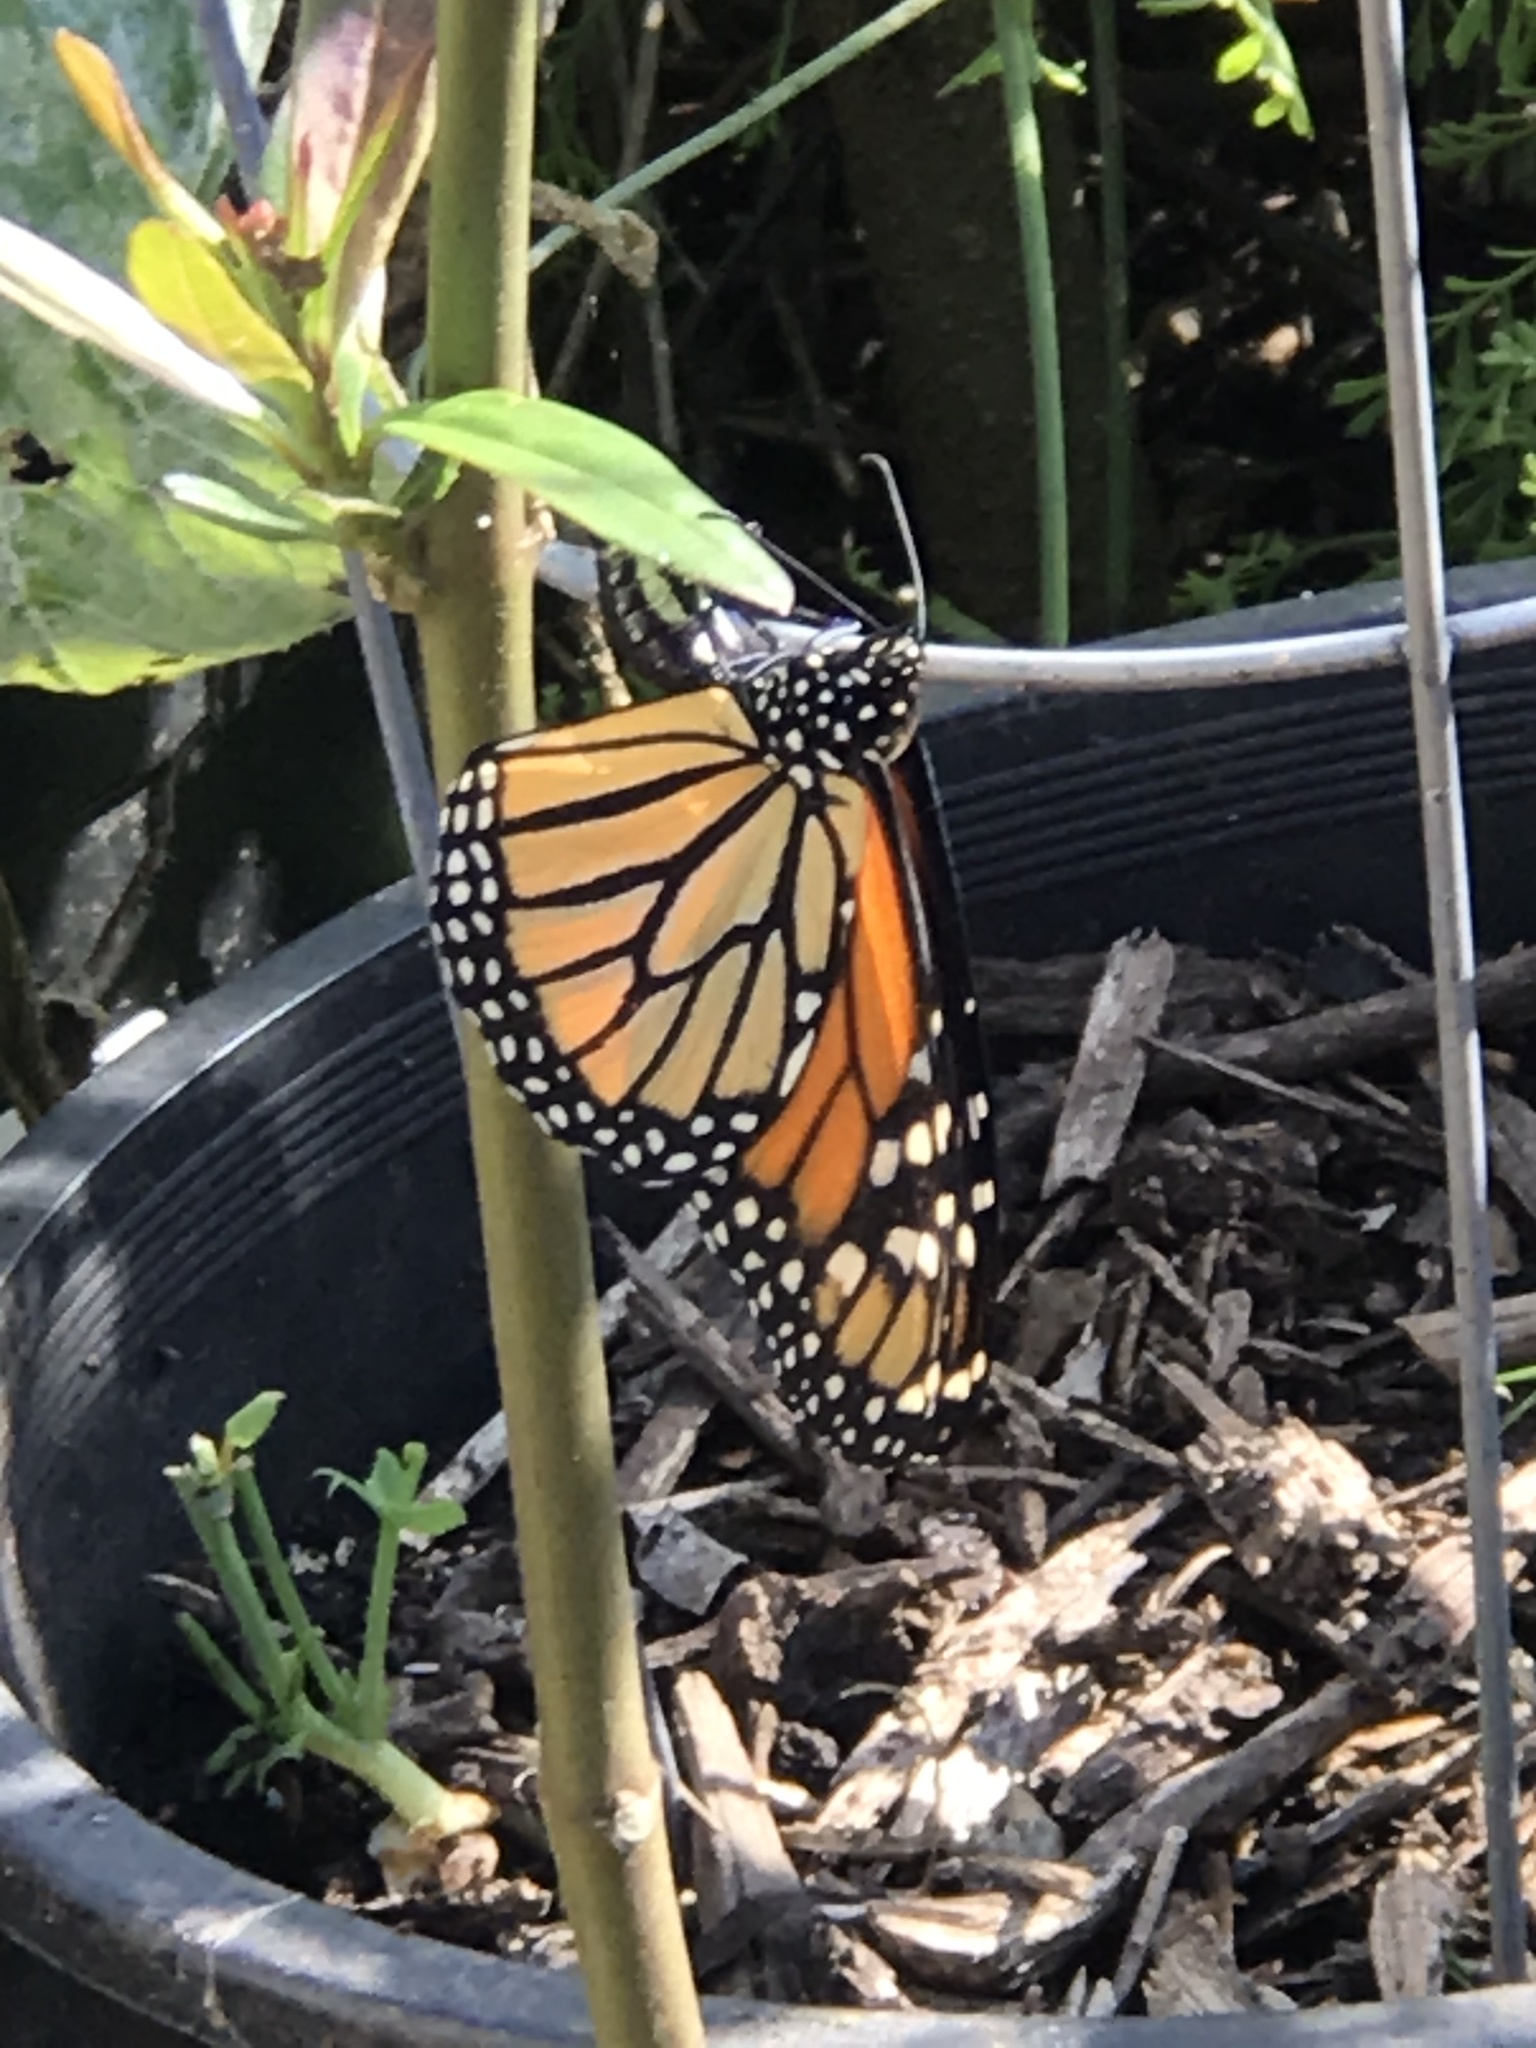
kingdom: Animalia
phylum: Arthropoda
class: Insecta
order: Lepidoptera
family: Nymphalidae
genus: Danaus
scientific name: Danaus plexippus
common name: Monarch
